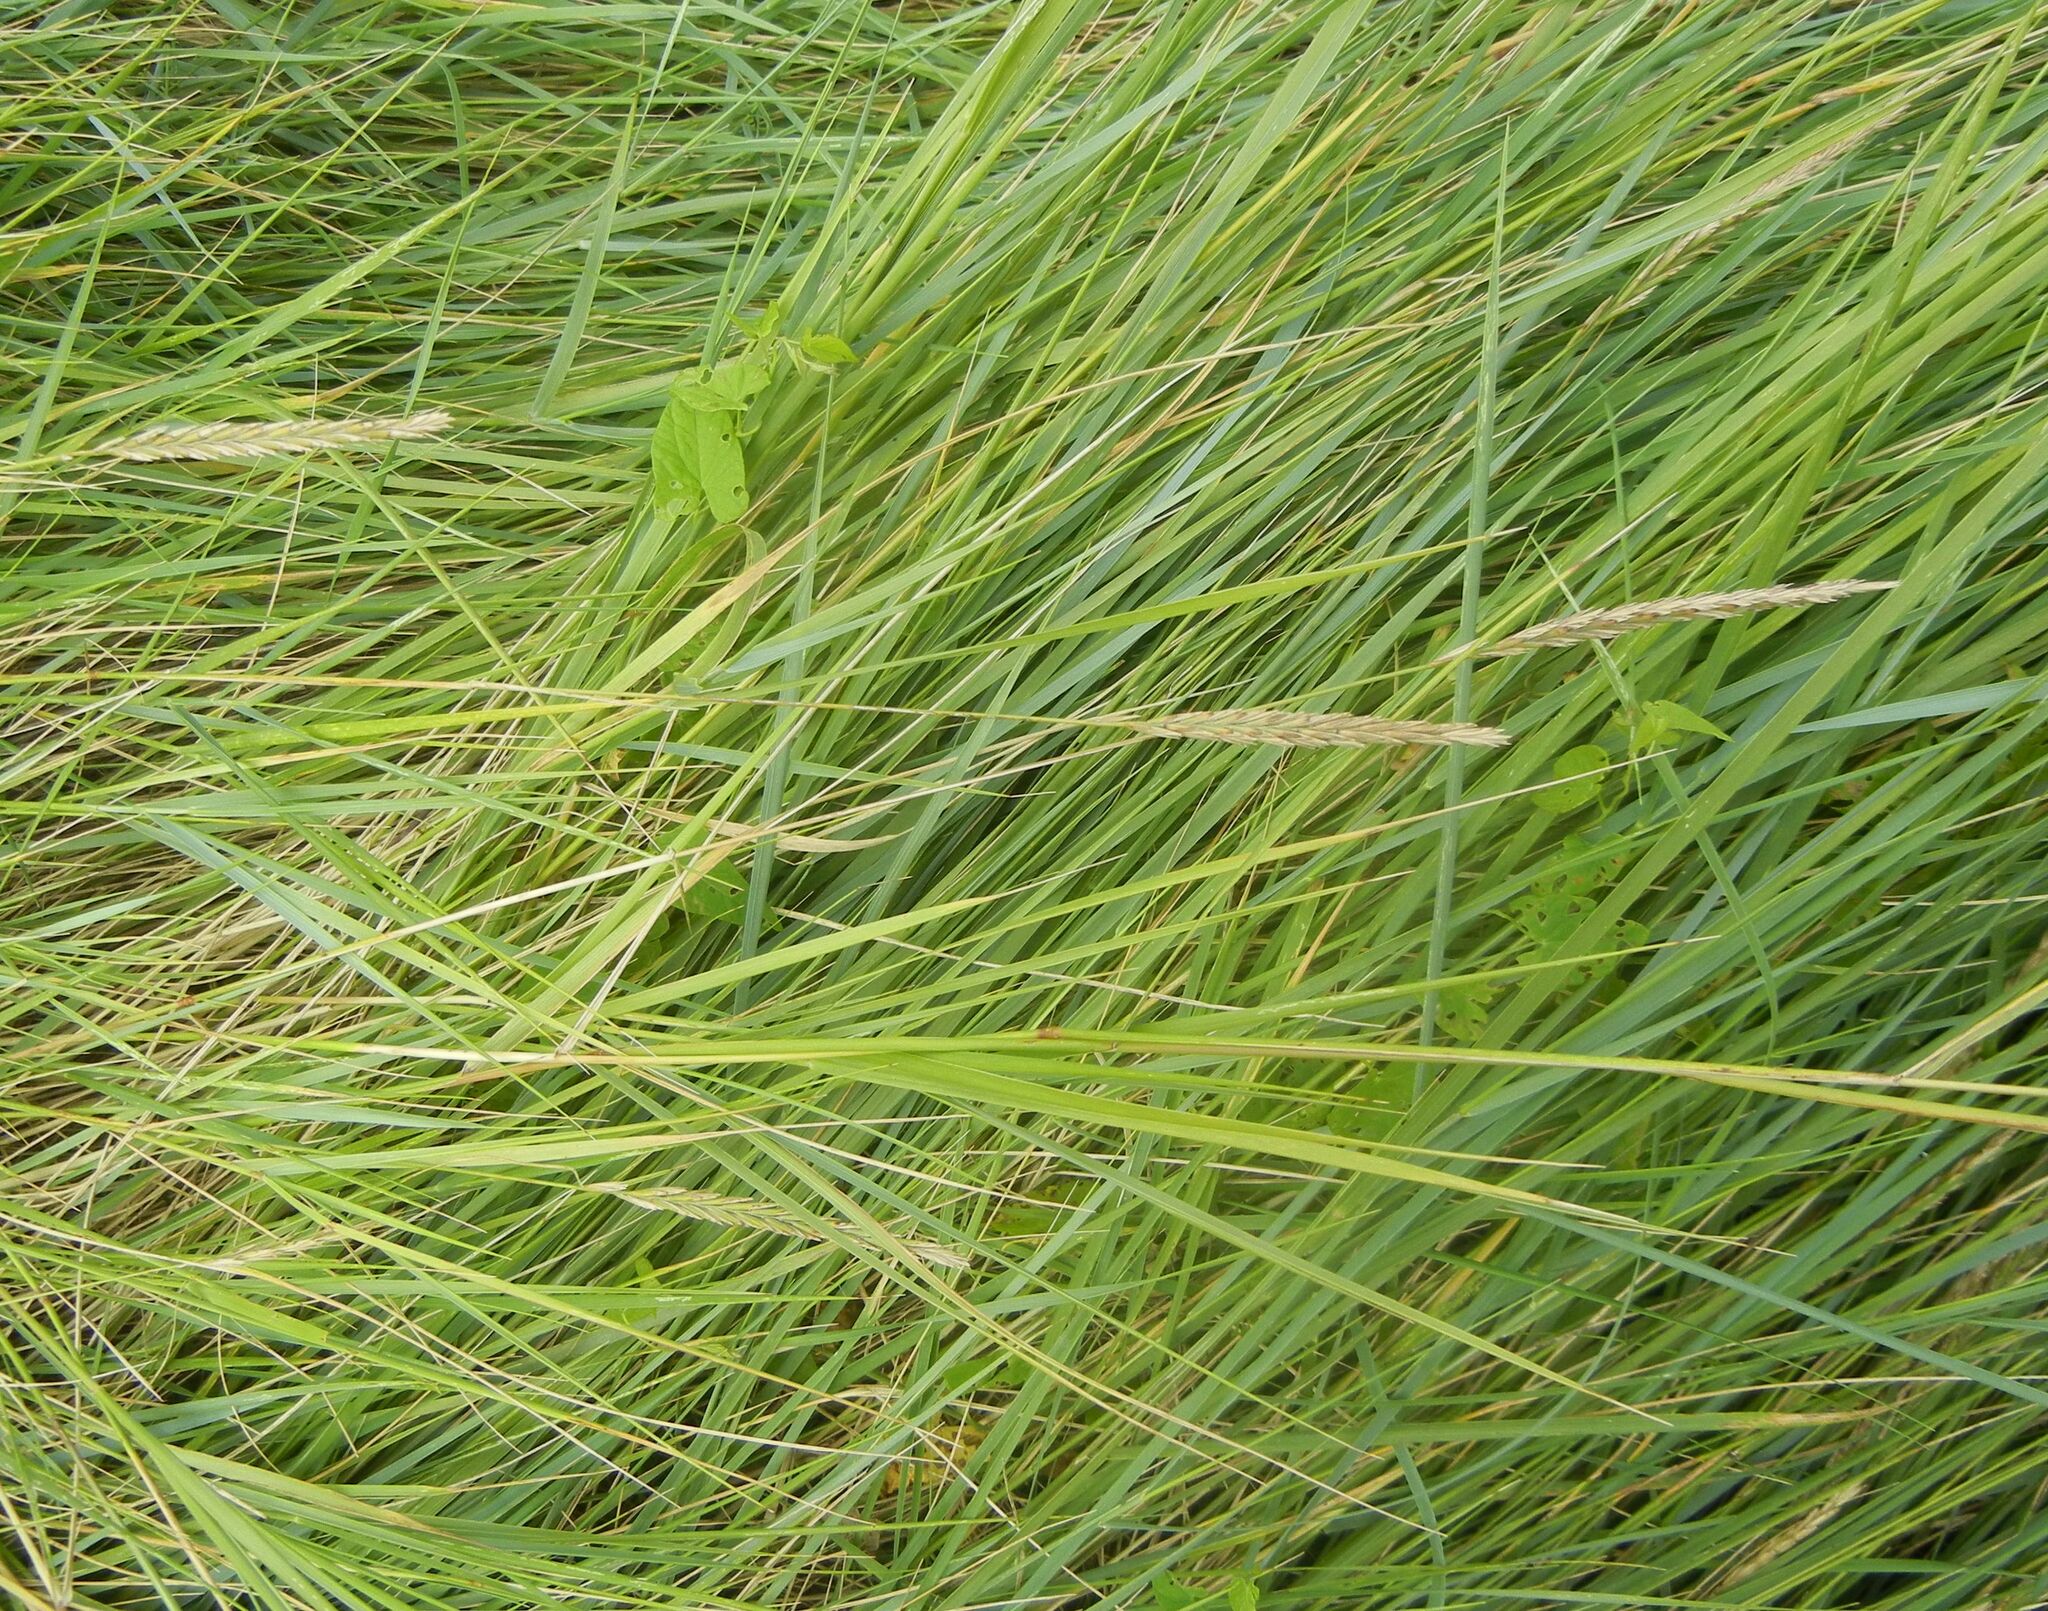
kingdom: Plantae
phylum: Tracheophyta
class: Liliopsida
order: Poales
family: Poaceae
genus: Elymus
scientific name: Elymus athericus
